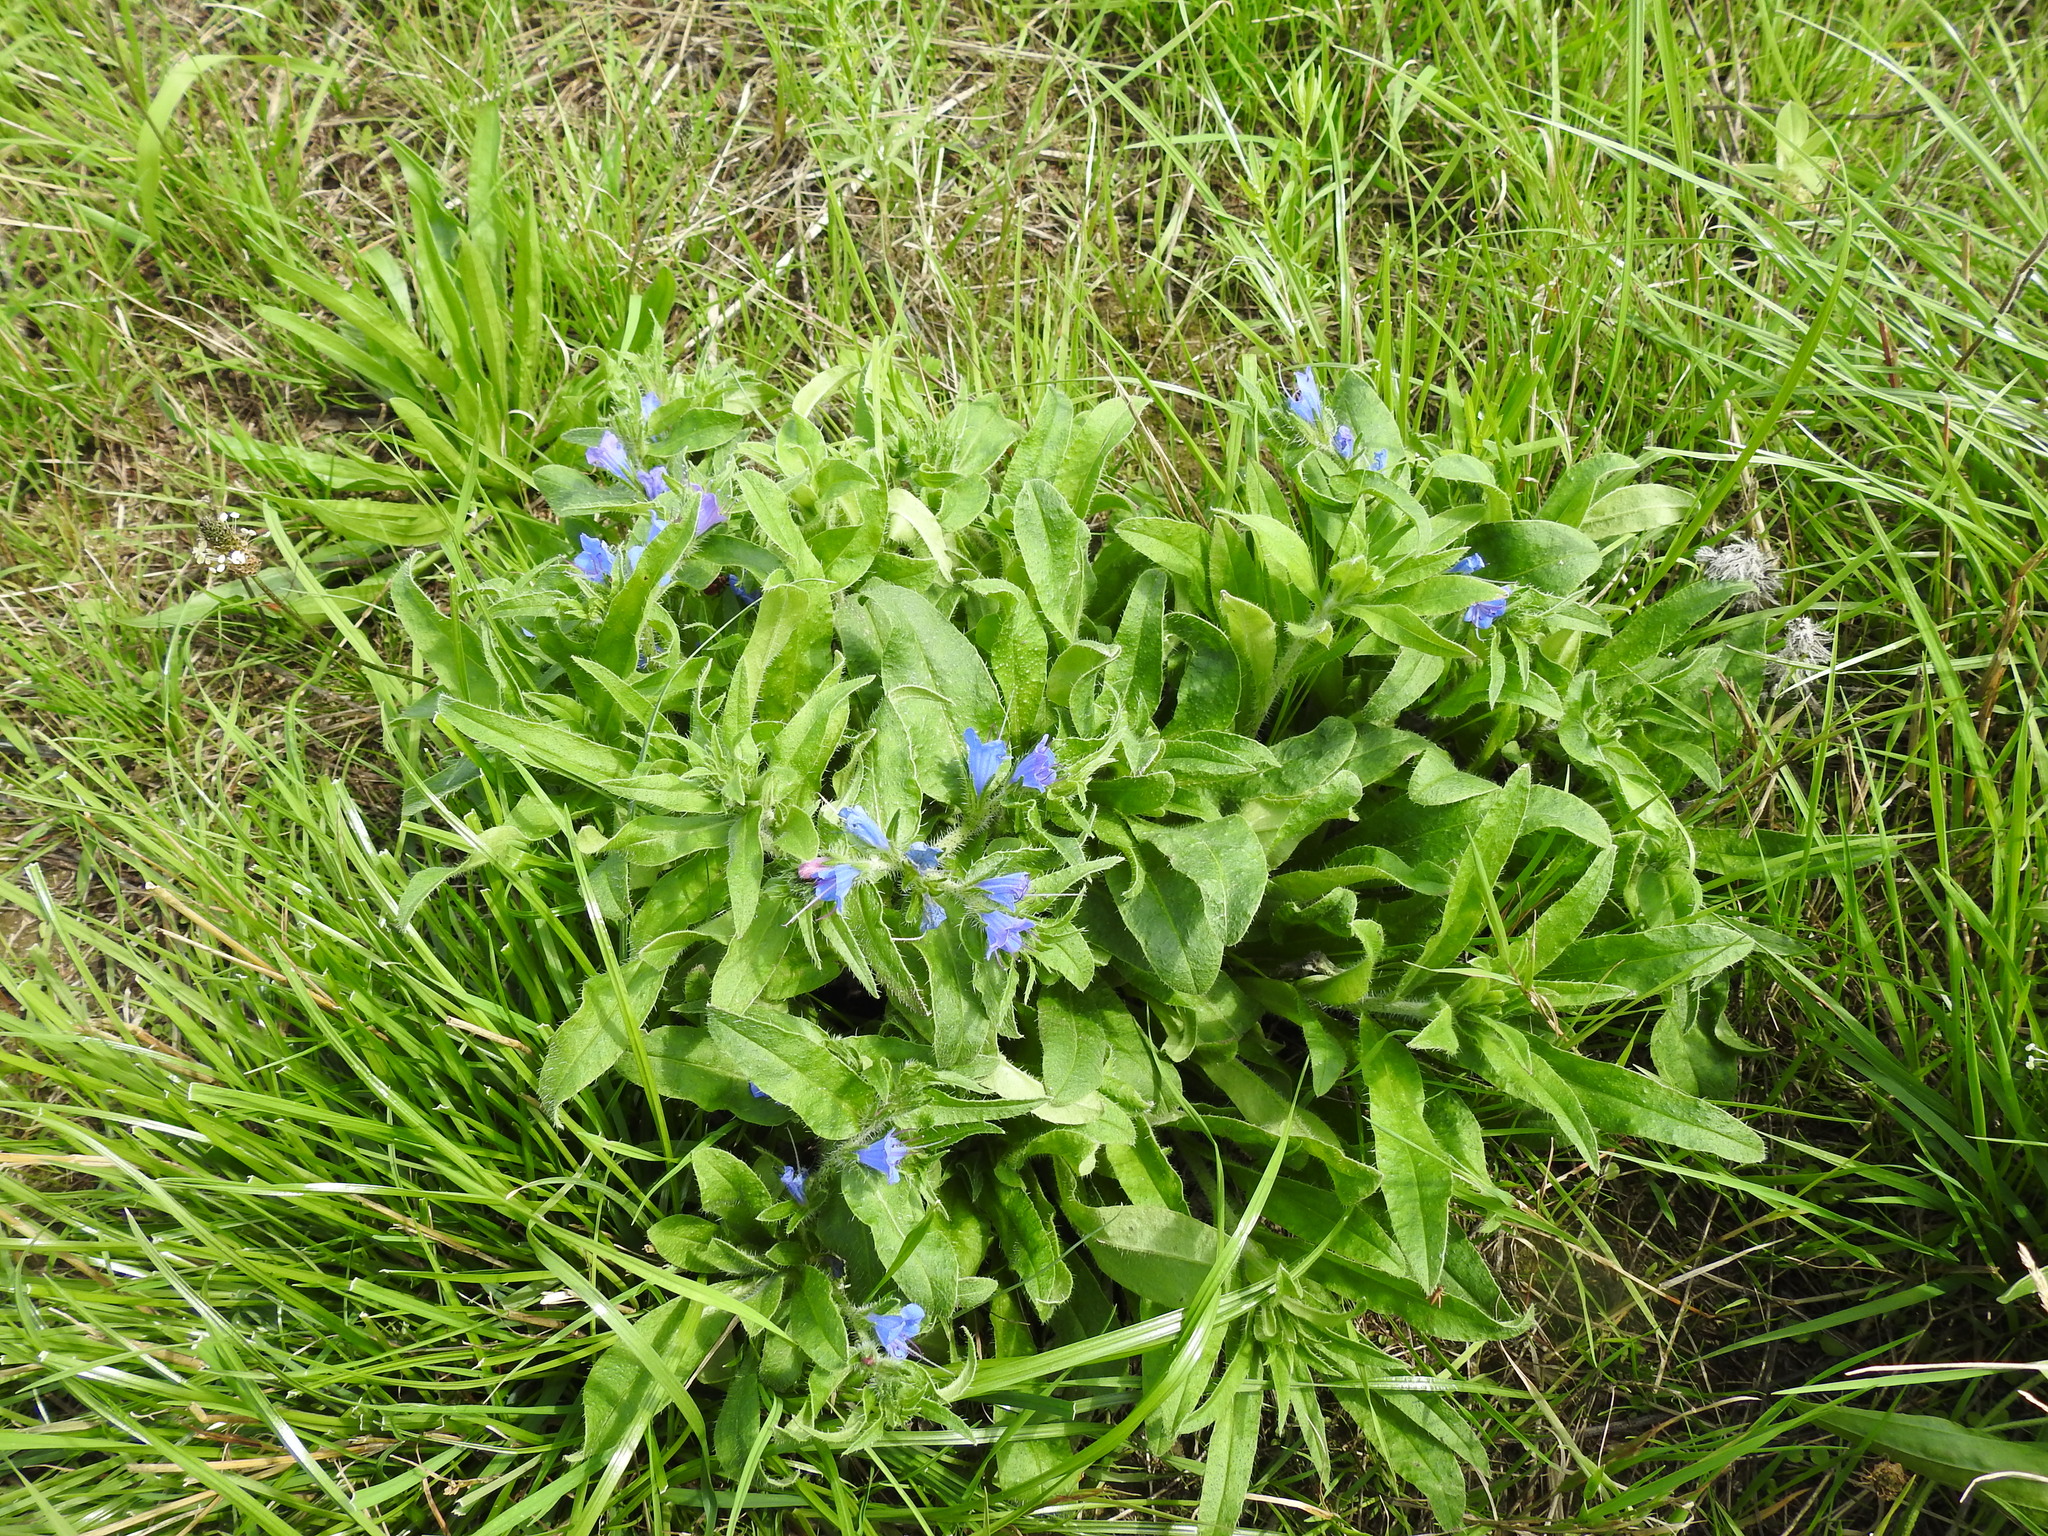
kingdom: Plantae
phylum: Tracheophyta
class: Magnoliopsida
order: Boraginales
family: Boraginaceae
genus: Echium
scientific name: Echium vulgare
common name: Common viper's bugloss
